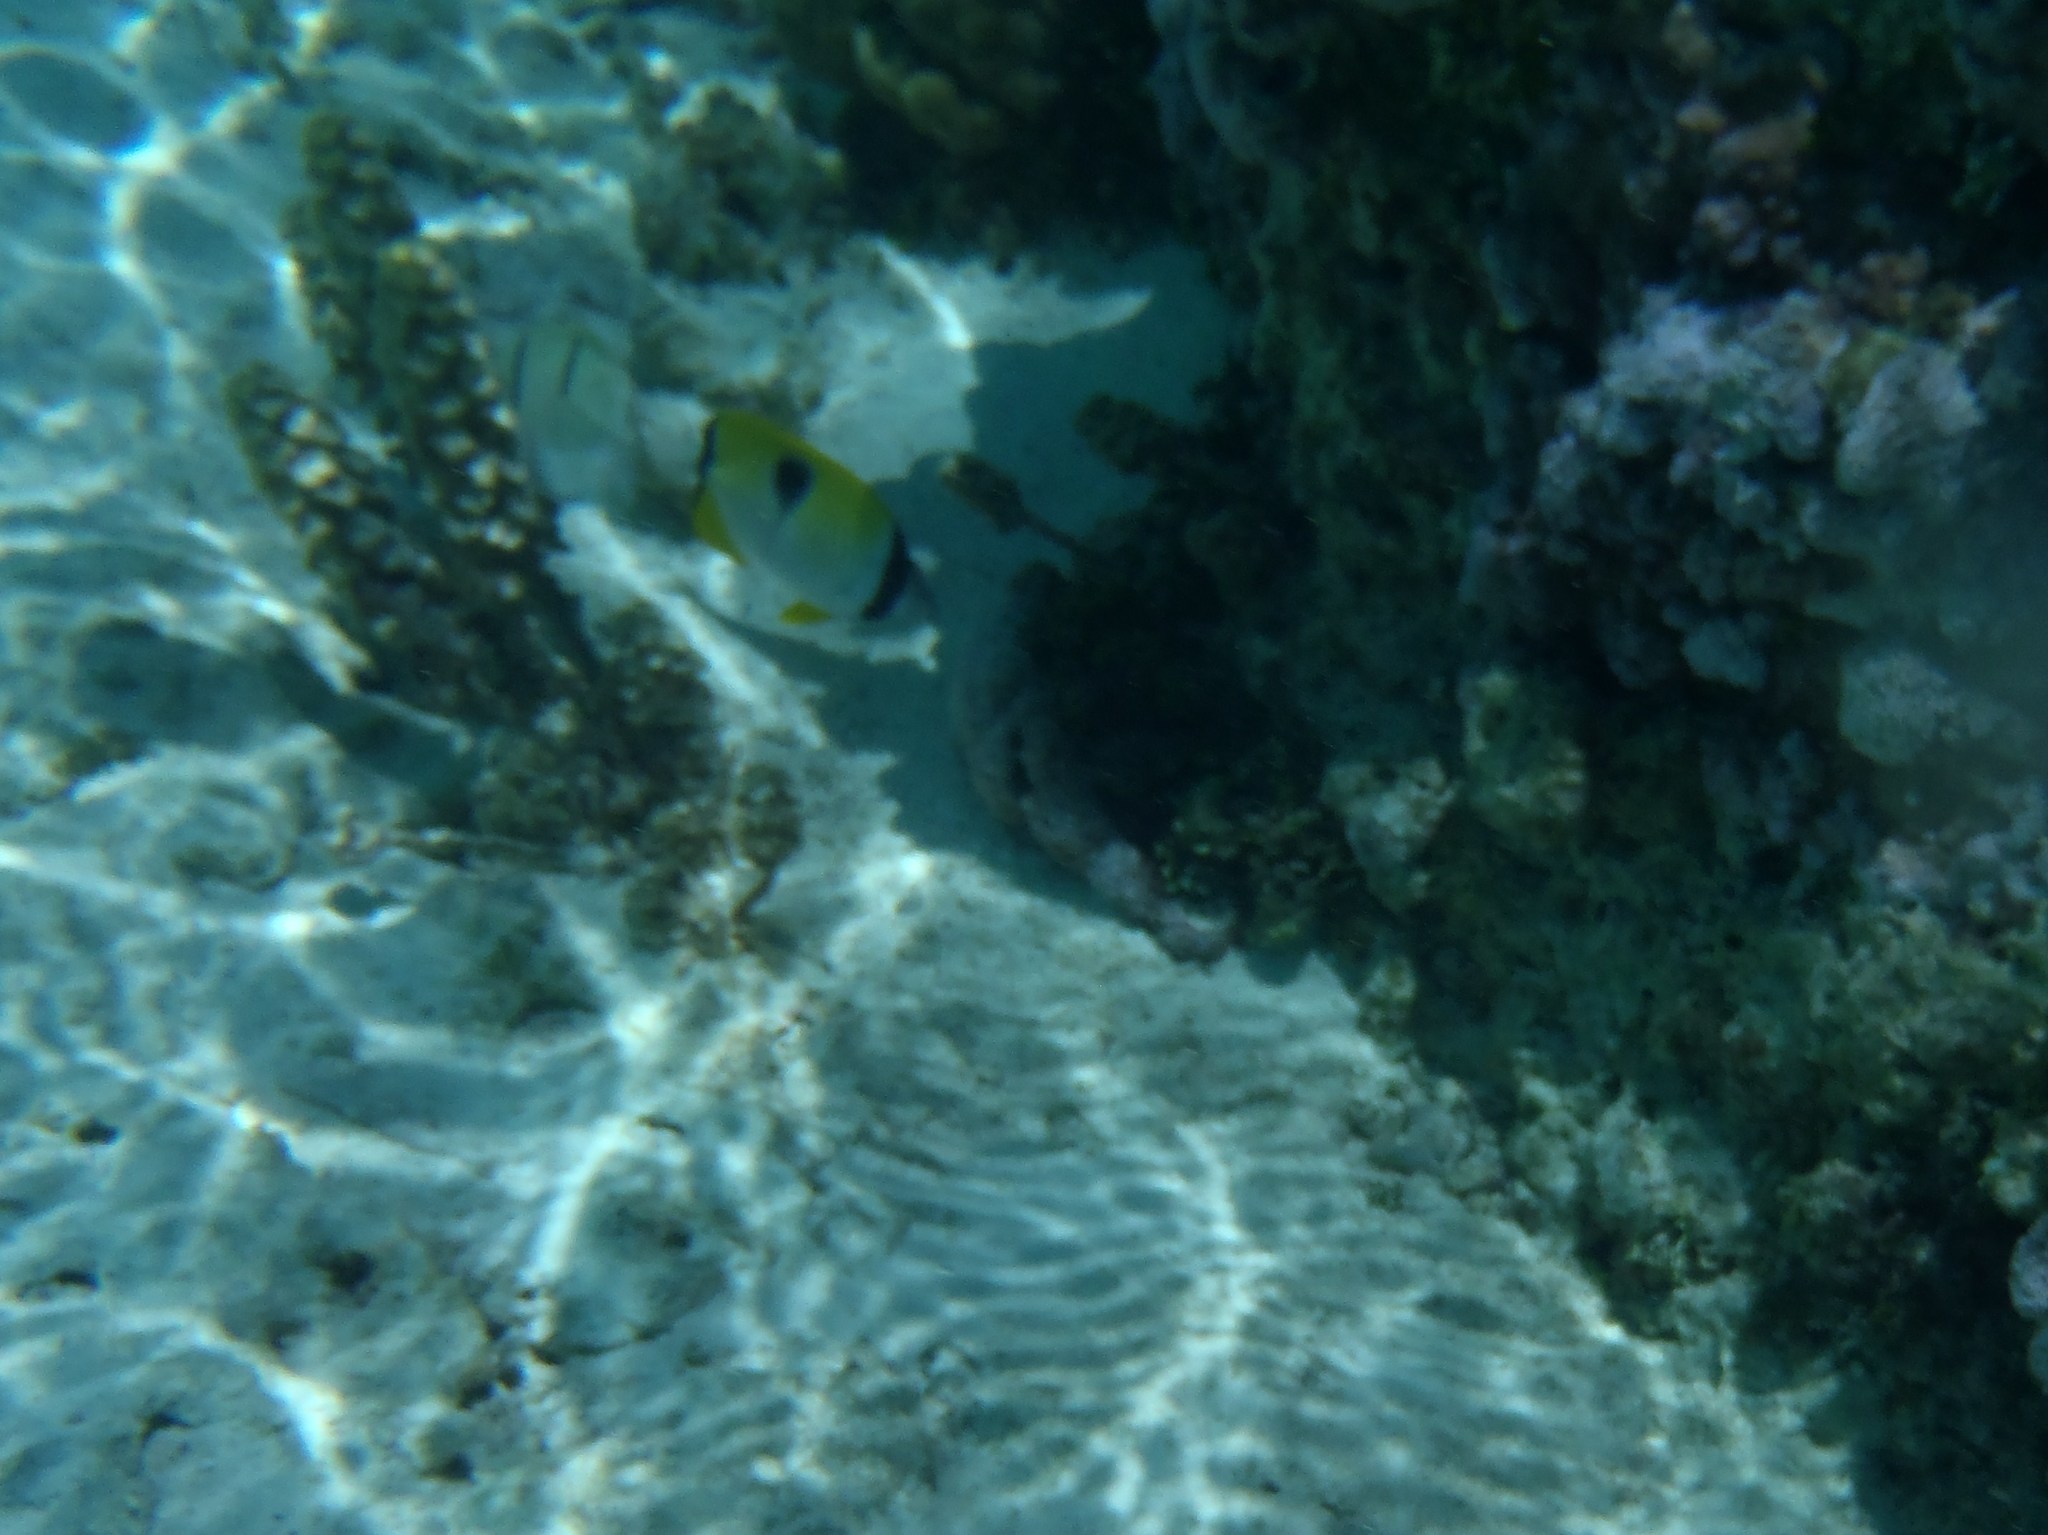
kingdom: Animalia
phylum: Chordata
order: Perciformes
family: Chaetodontidae
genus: Chaetodon
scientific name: Chaetodon unimaculatus
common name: Teardrop butterflyfish
